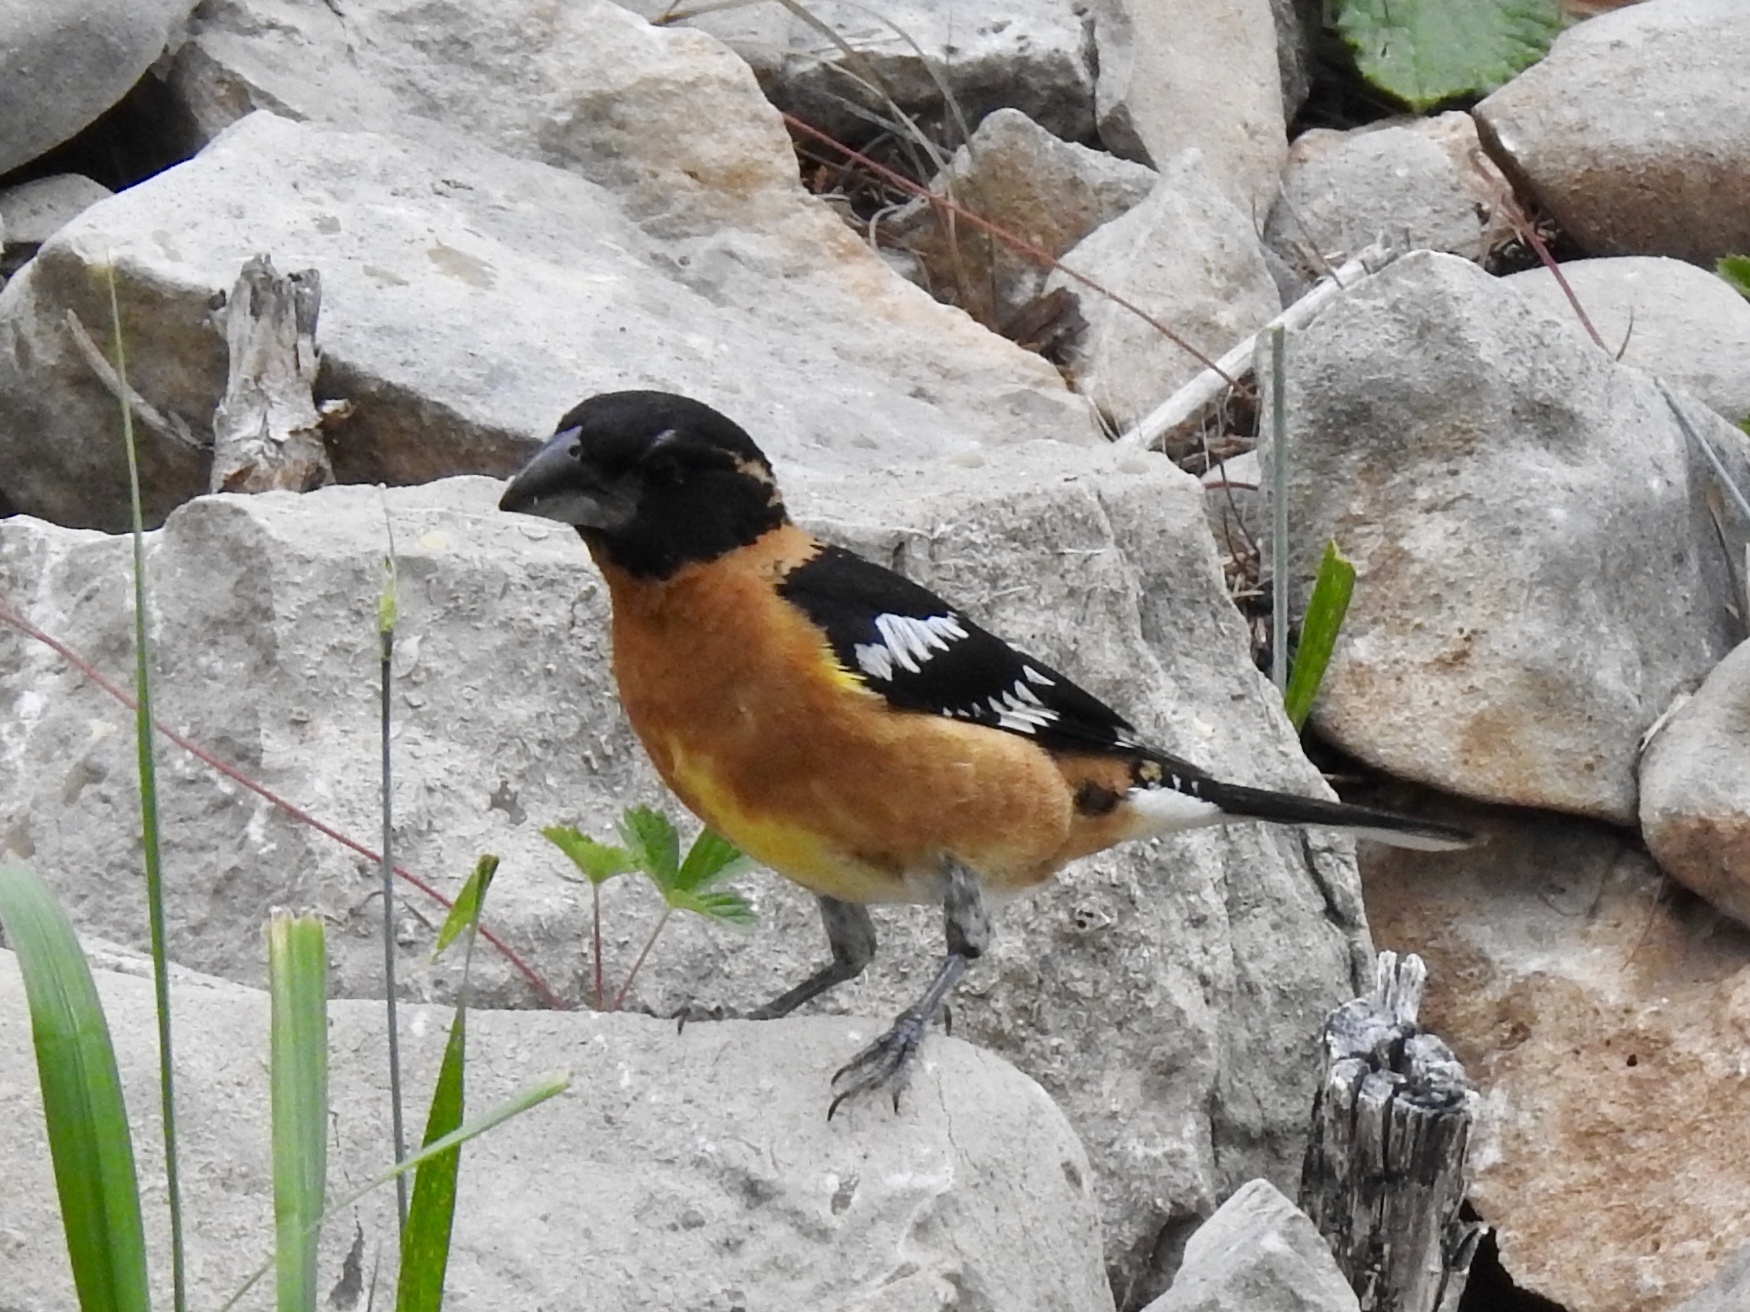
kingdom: Animalia
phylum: Chordata
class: Aves
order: Passeriformes
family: Cardinalidae
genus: Pheucticus
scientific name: Pheucticus melanocephalus
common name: Black-headed grosbeak
